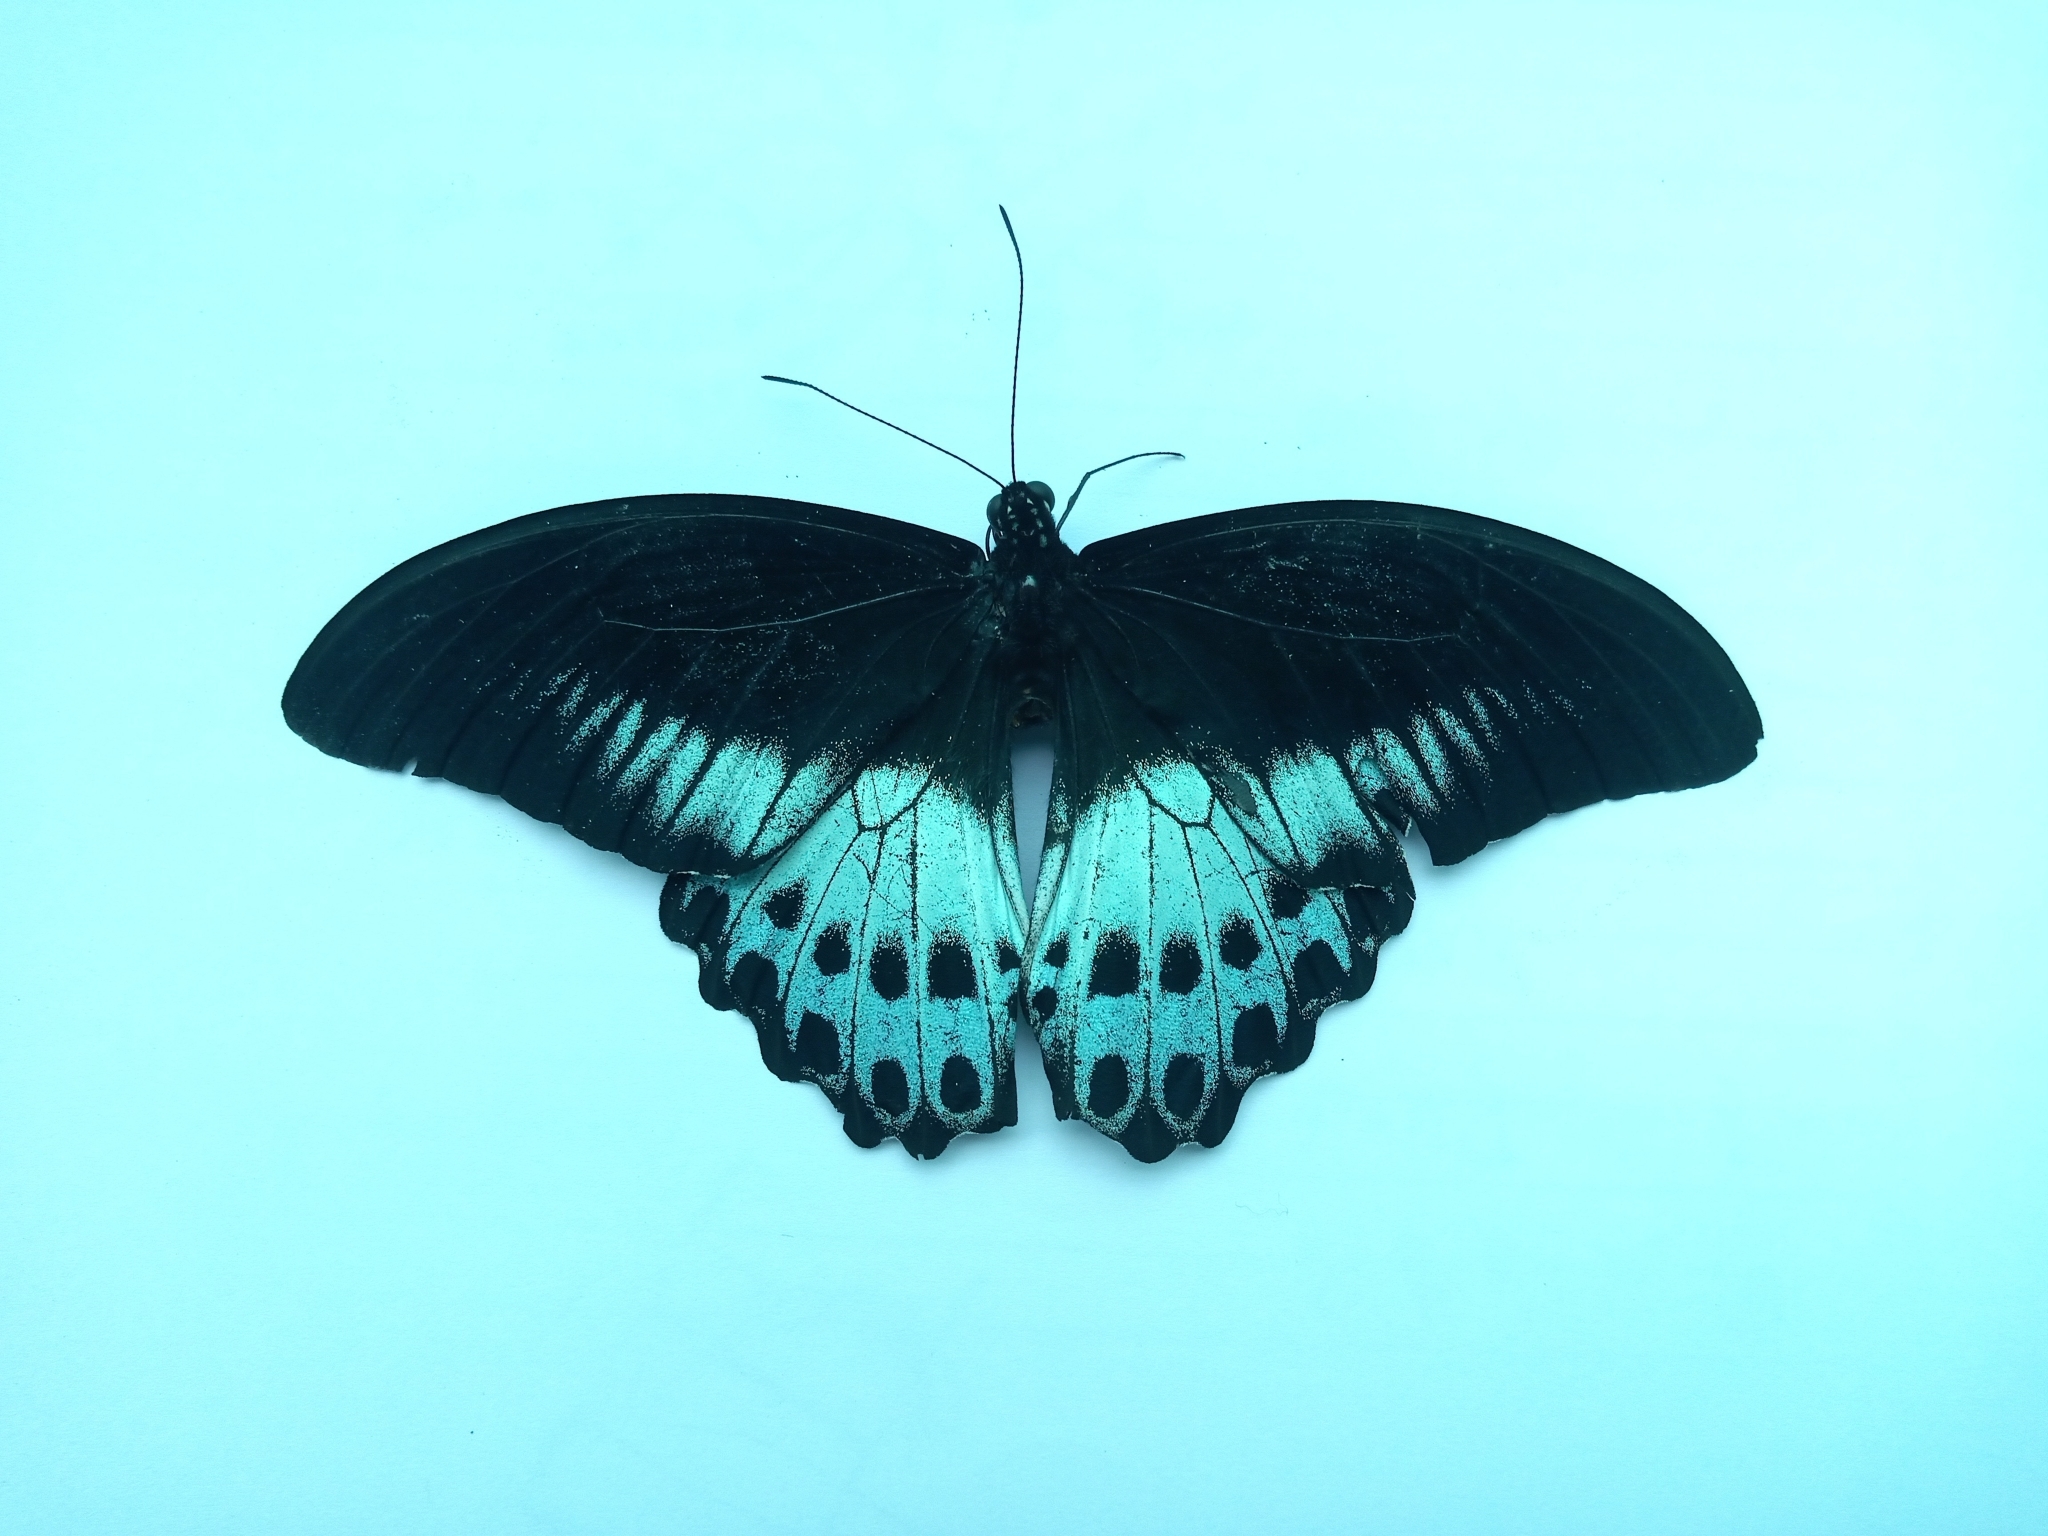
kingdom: Animalia
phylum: Arthropoda
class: Insecta
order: Lepidoptera
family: Papilionidae
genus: Papilio
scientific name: Papilio memnon
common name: Great mormon
